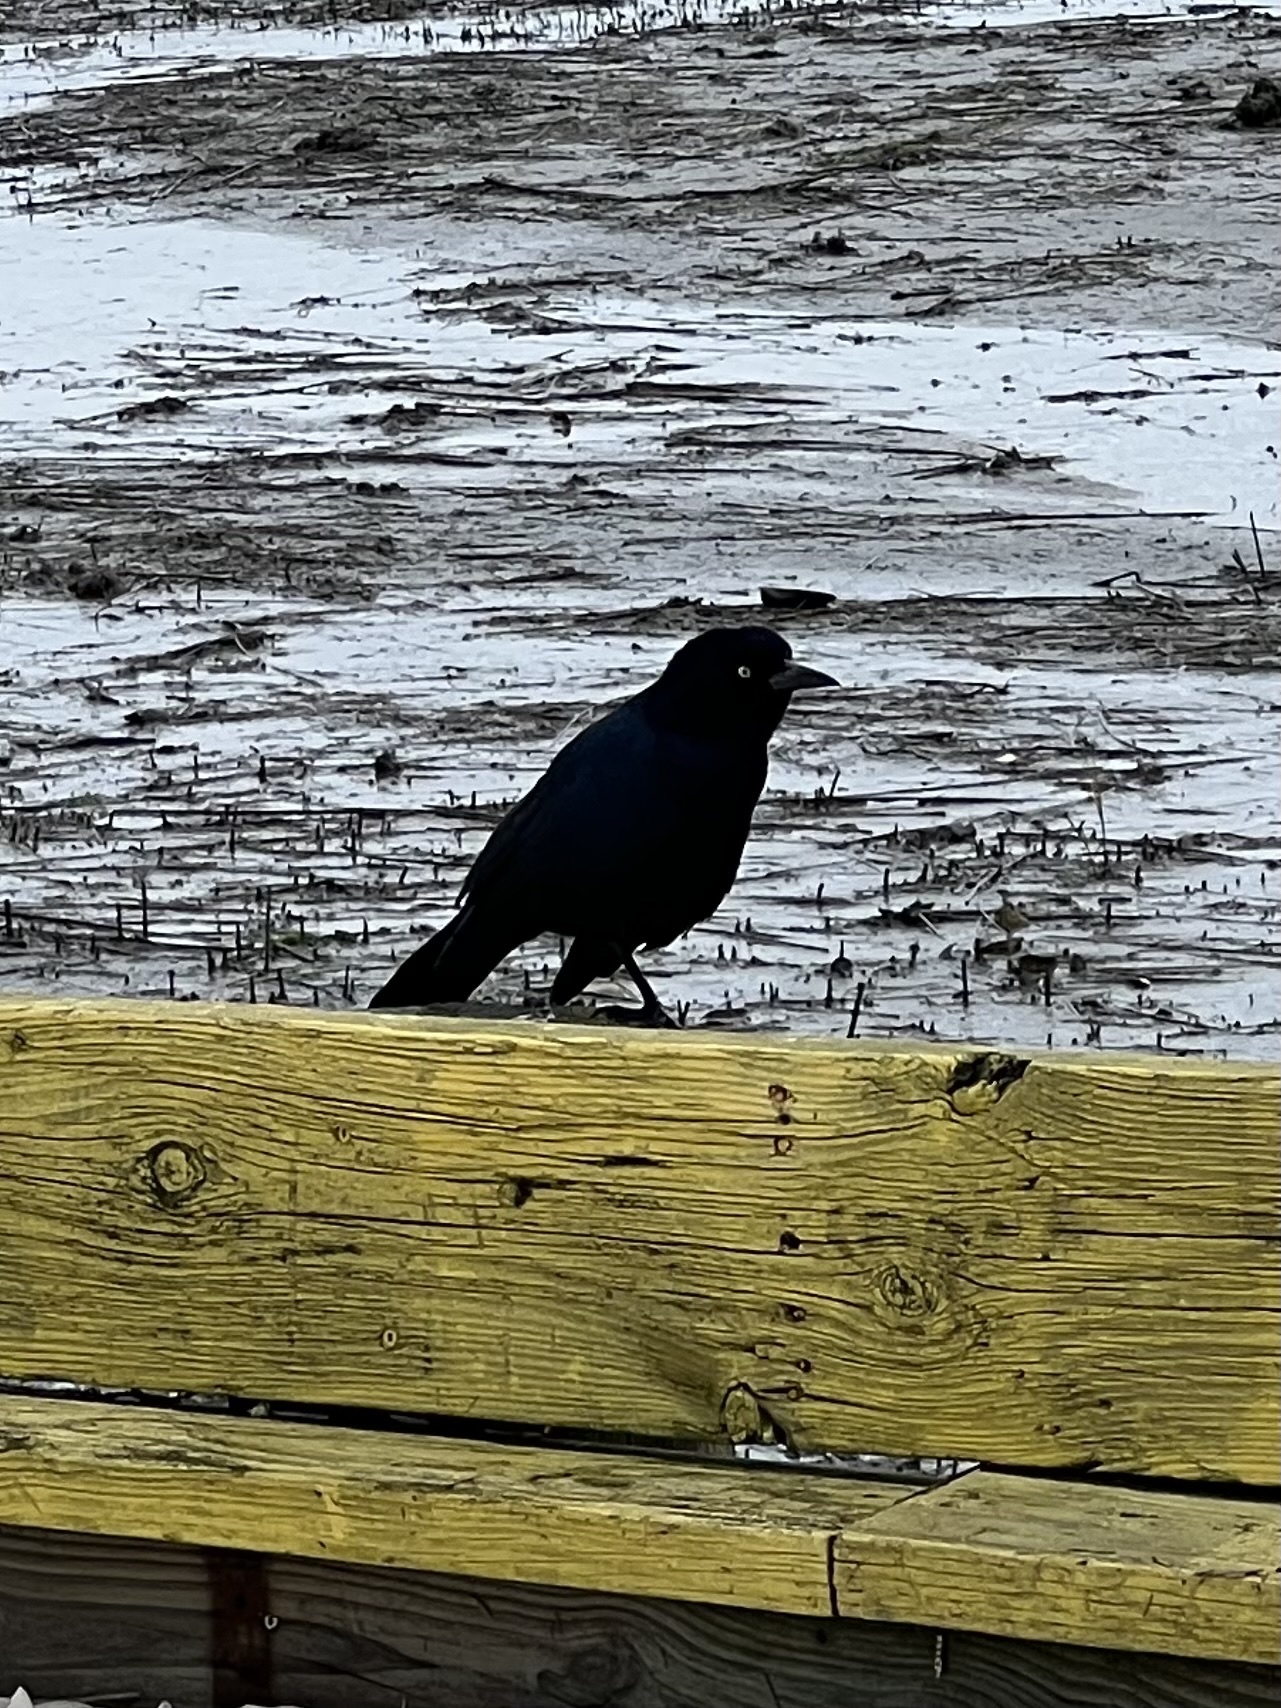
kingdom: Animalia
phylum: Chordata
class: Aves
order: Passeriformes
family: Icteridae
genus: Quiscalus
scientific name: Quiscalus major
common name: Boat-tailed grackle
